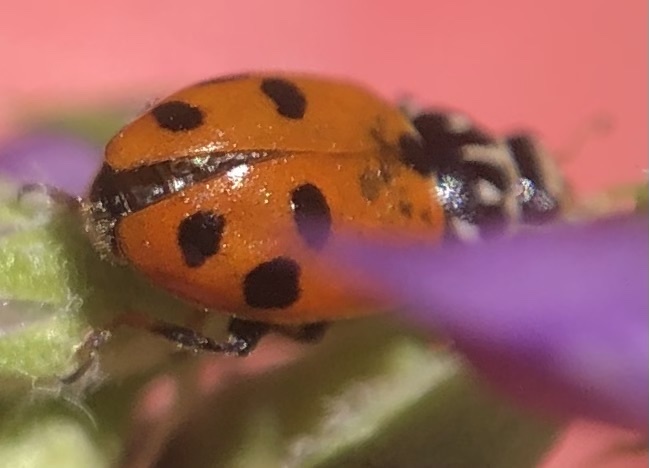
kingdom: Animalia
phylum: Arthropoda
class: Insecta
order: Coleoptera
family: Coccinellidae
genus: Hippodamia
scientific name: Hippodamia variegata
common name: Ladybird beetle
